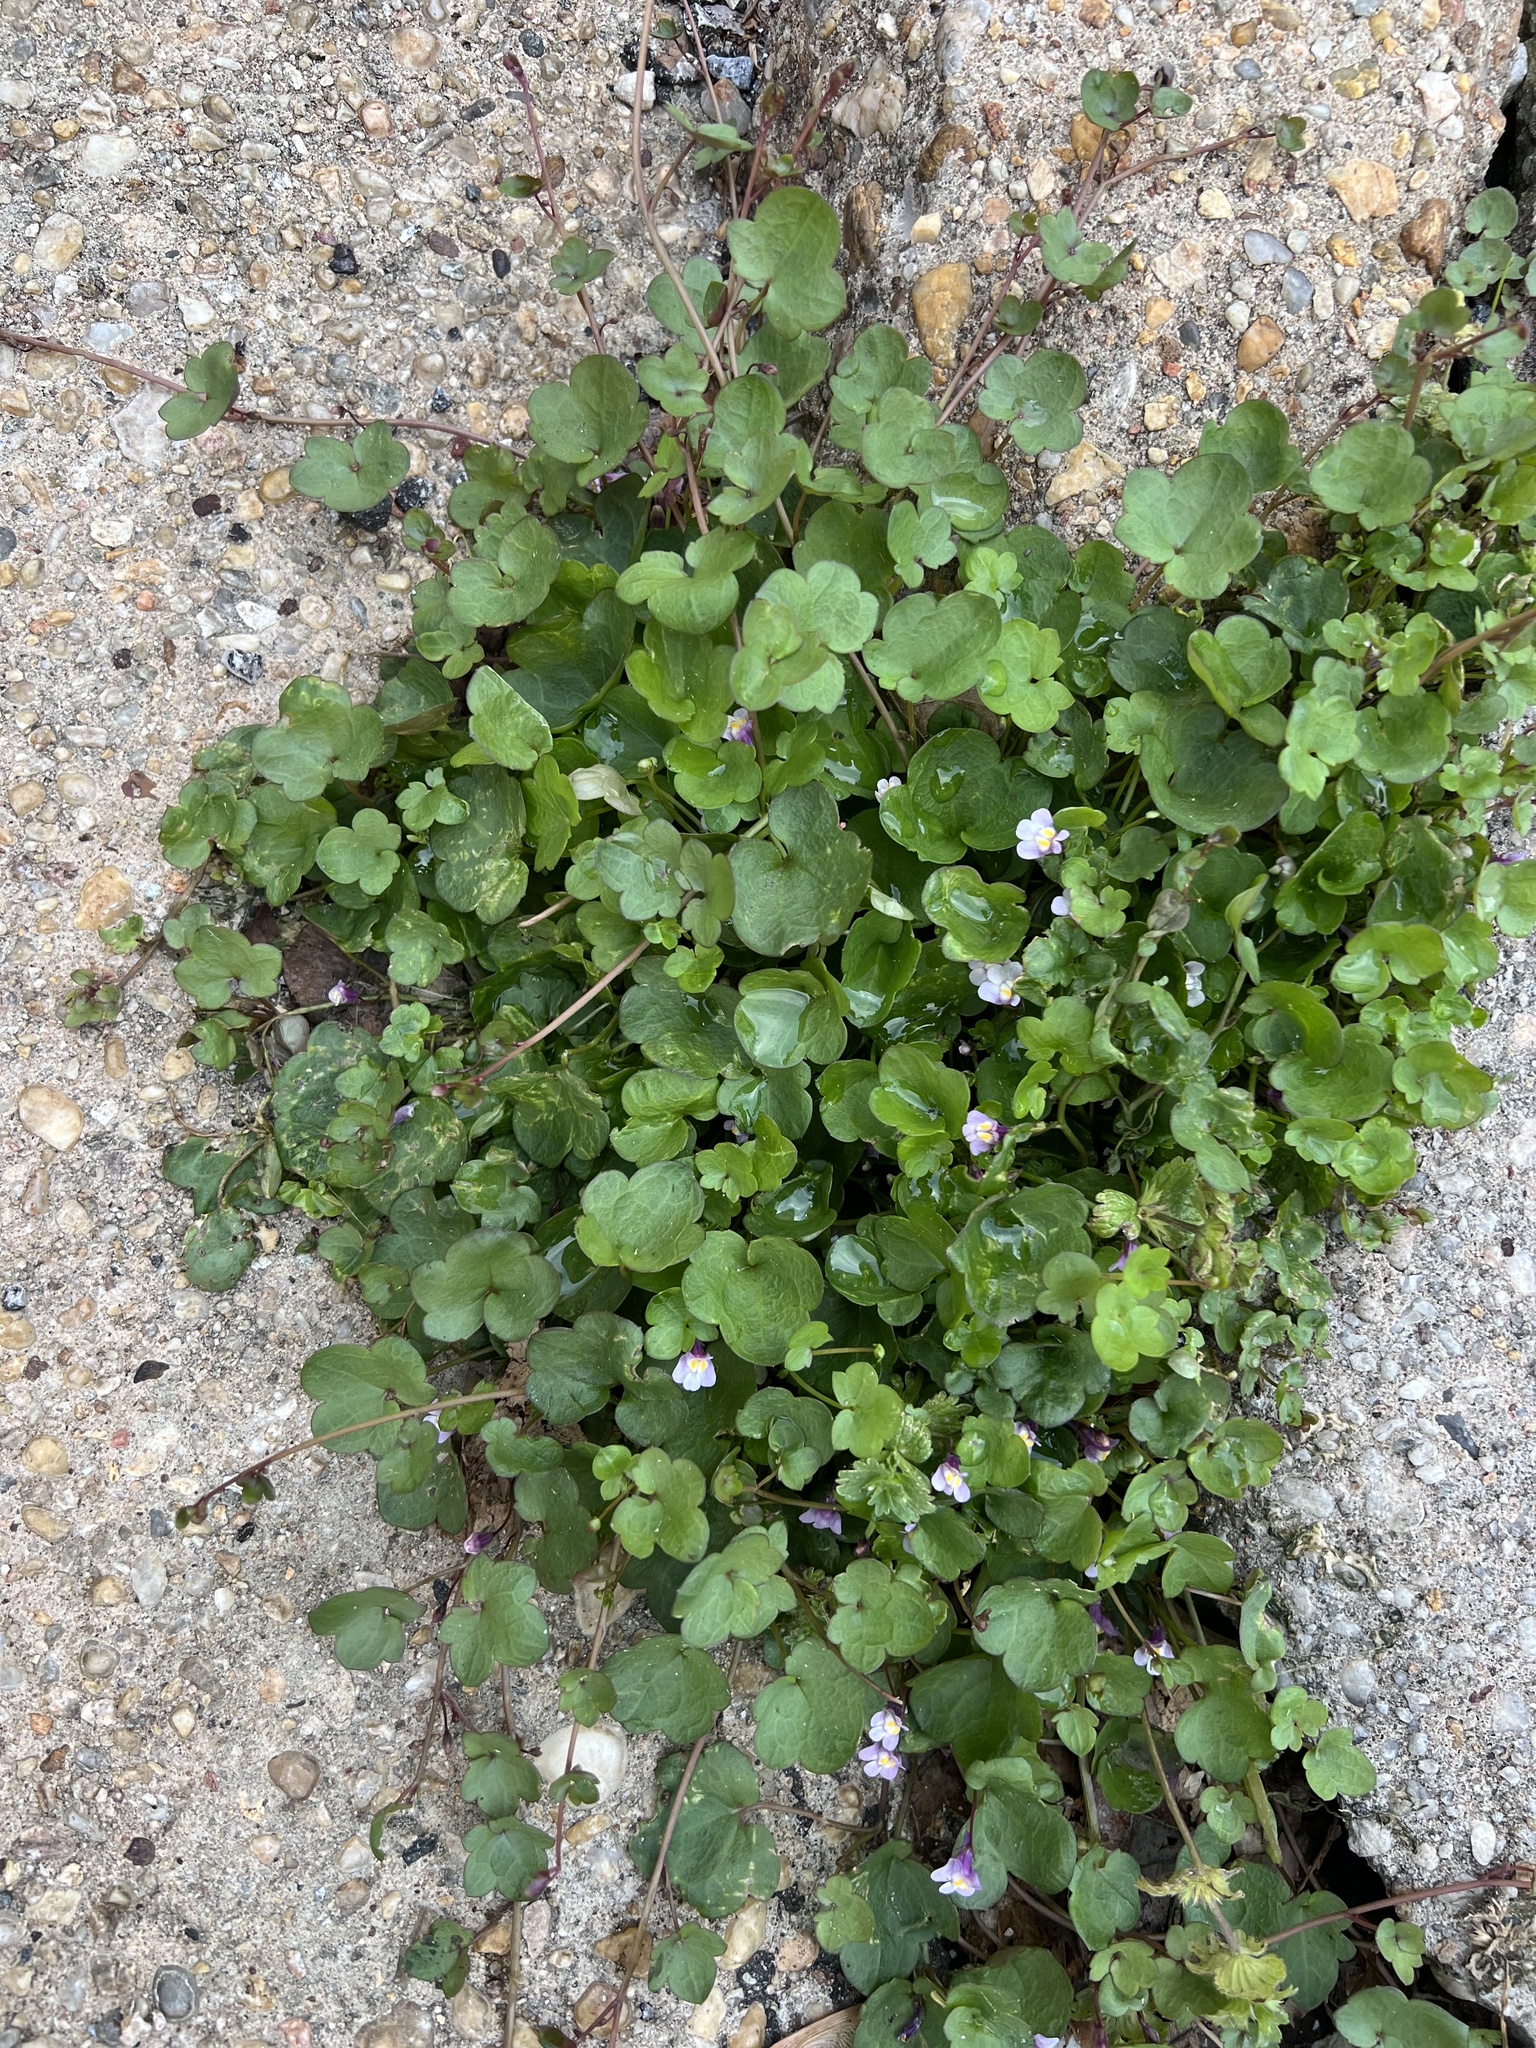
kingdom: Plantae
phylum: Tracheophyta
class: Magnoliopsida
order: Lamiales
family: Plantaginaceae
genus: Cymbalaria
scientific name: Cymbalaria muralis
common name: Ivy-leaved toadflax
